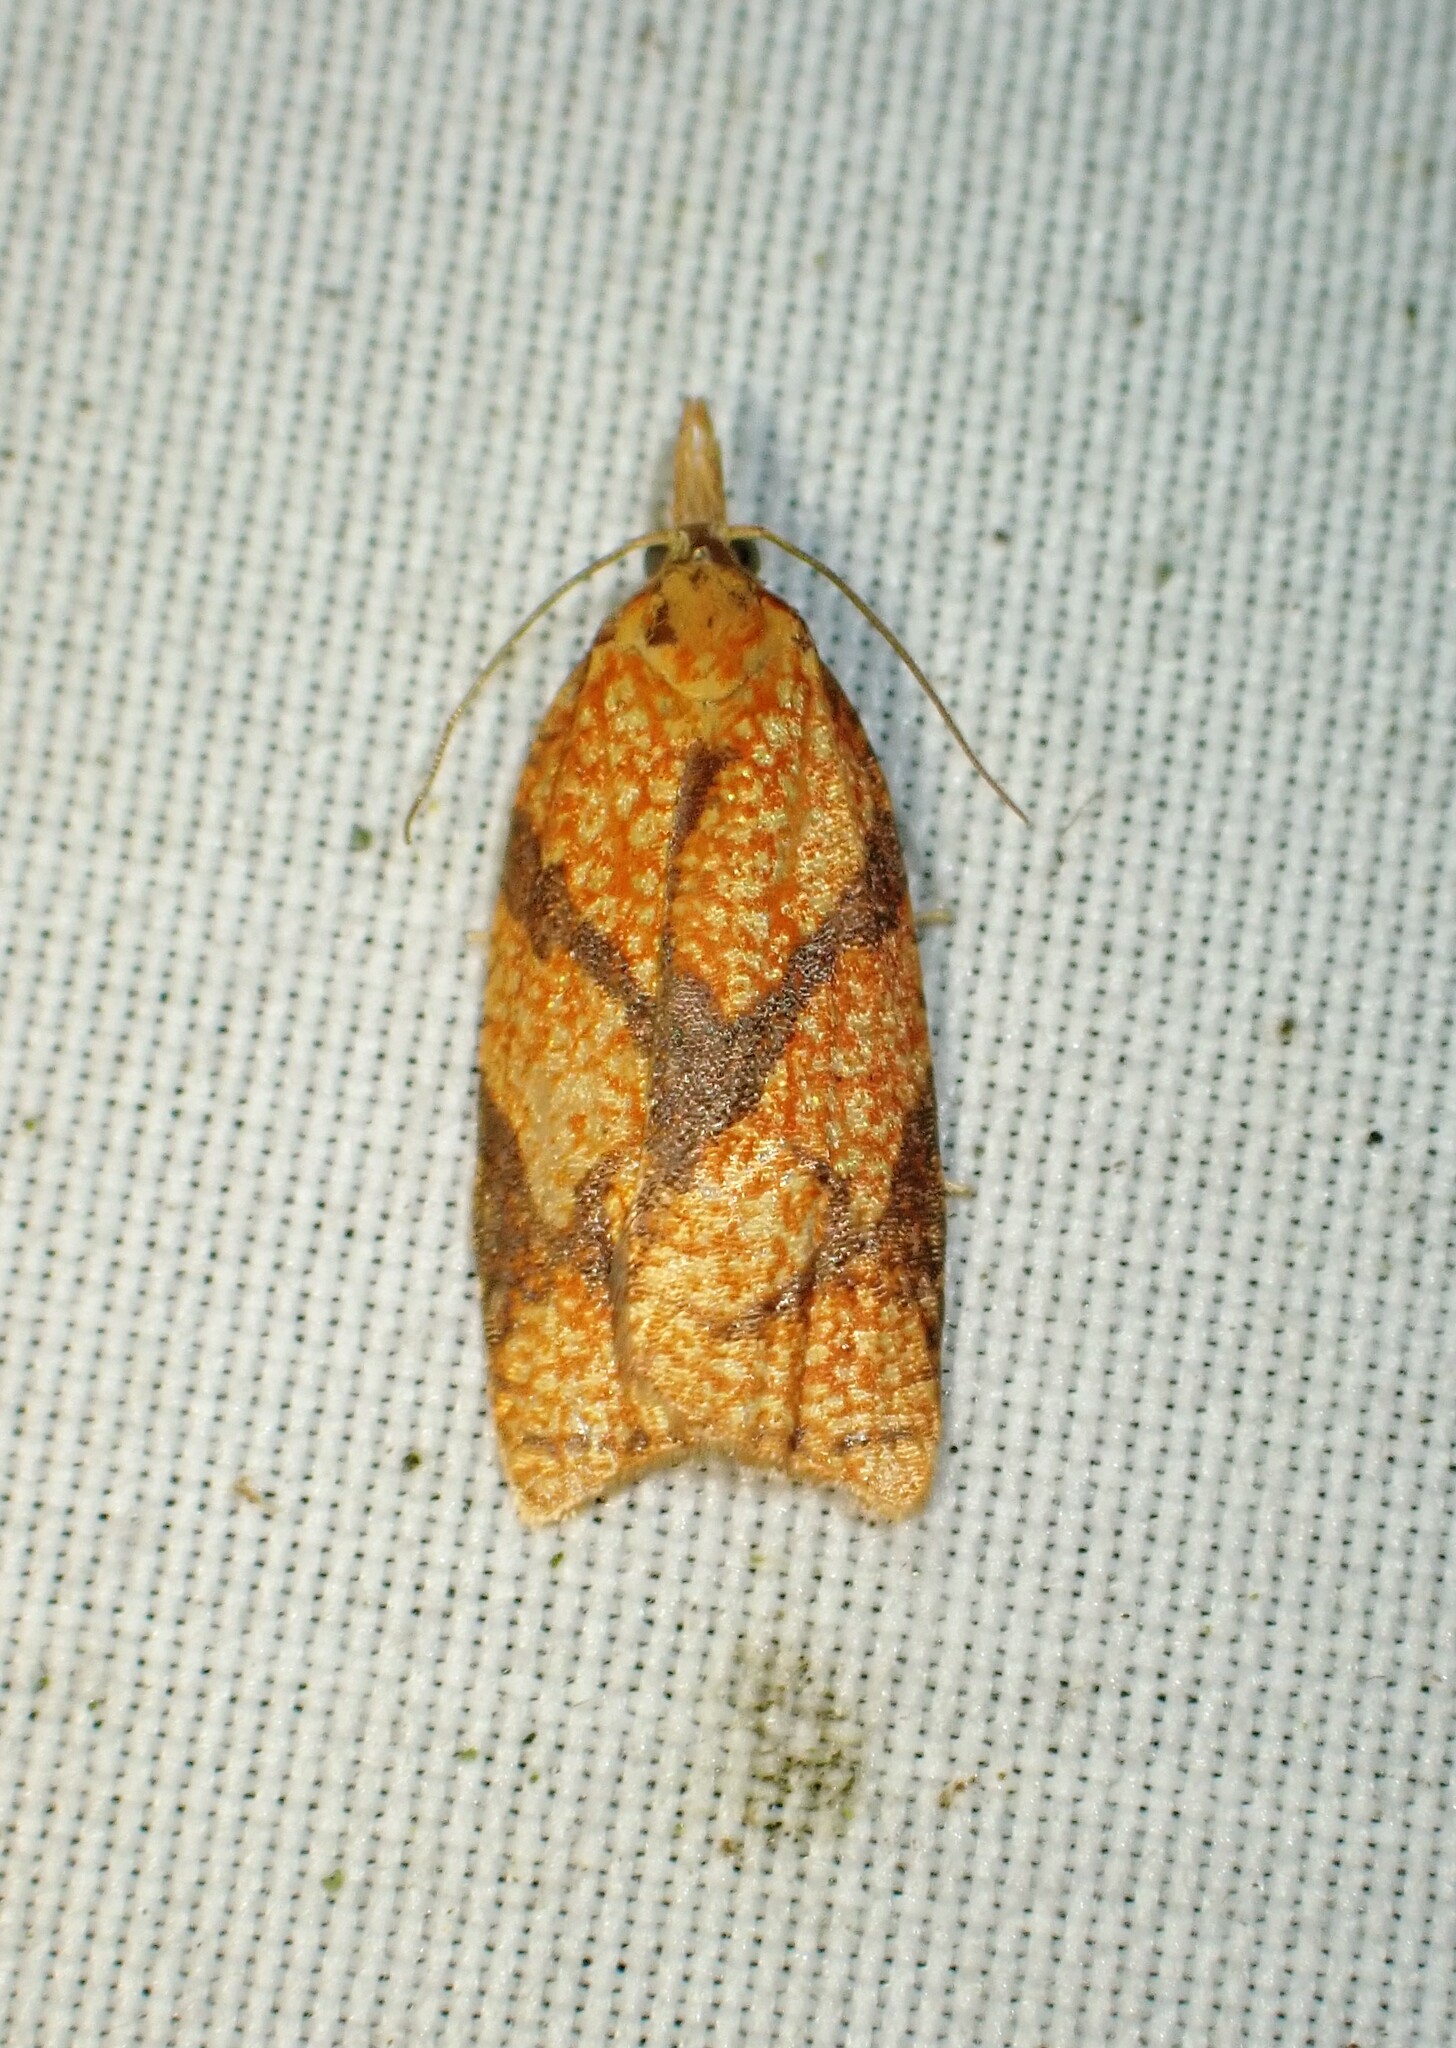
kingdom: Animalia
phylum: Arthropoda
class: Insecta
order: Lepidoptera
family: Tortricidae
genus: Cenopis
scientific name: Cenopis reticulatana
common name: Reticulated fruitworm moth
